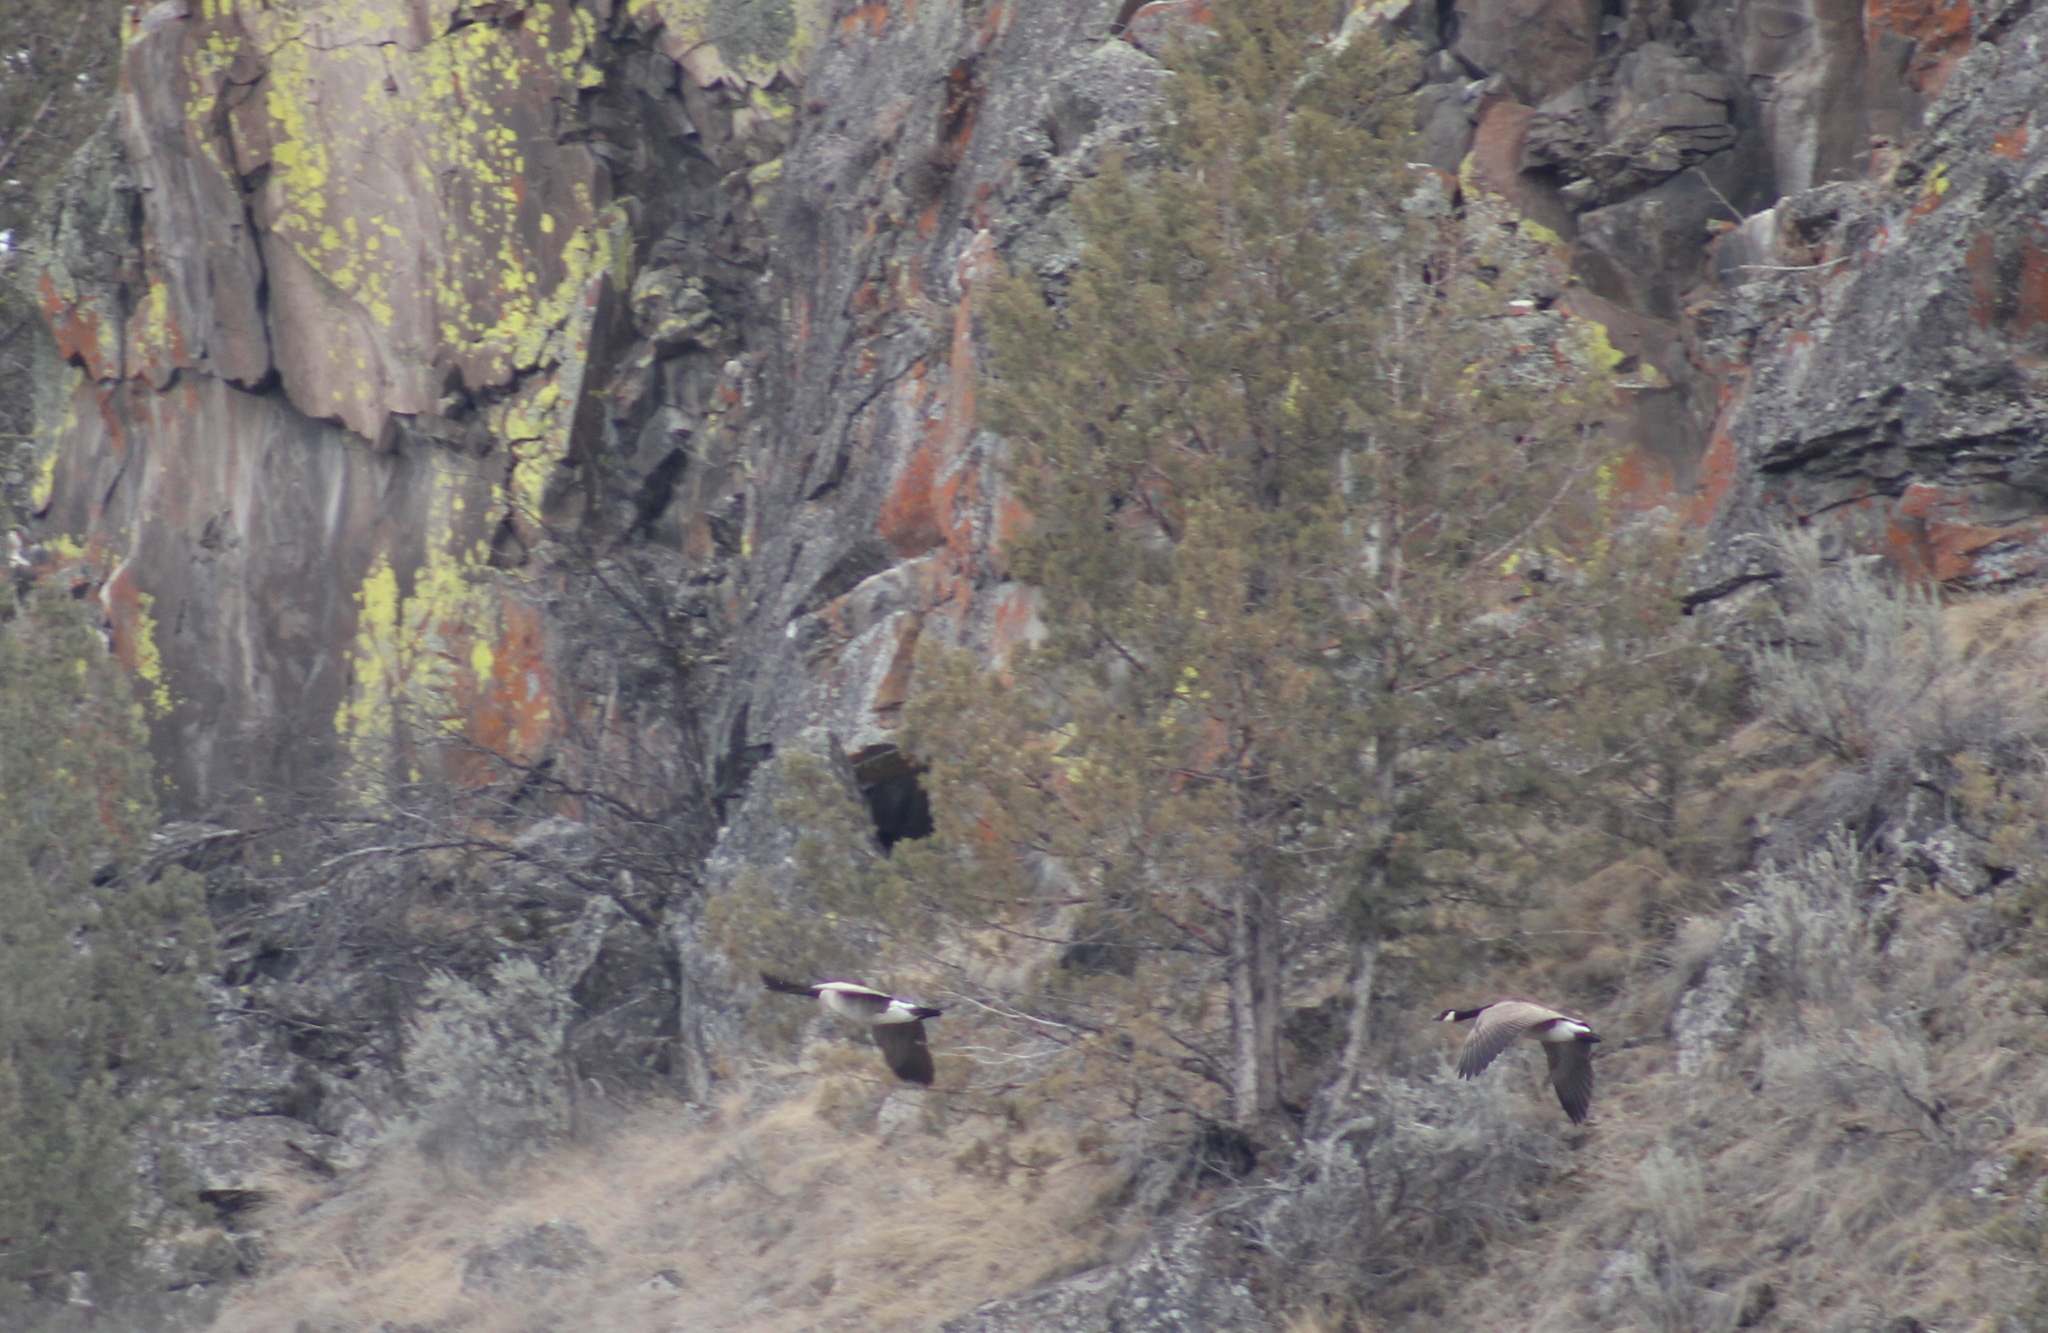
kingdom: Animalia
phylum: Chordata
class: Aves
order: Anseriformes
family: Anatidae
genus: Branta
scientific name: Branta canadensis
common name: Canada goose
